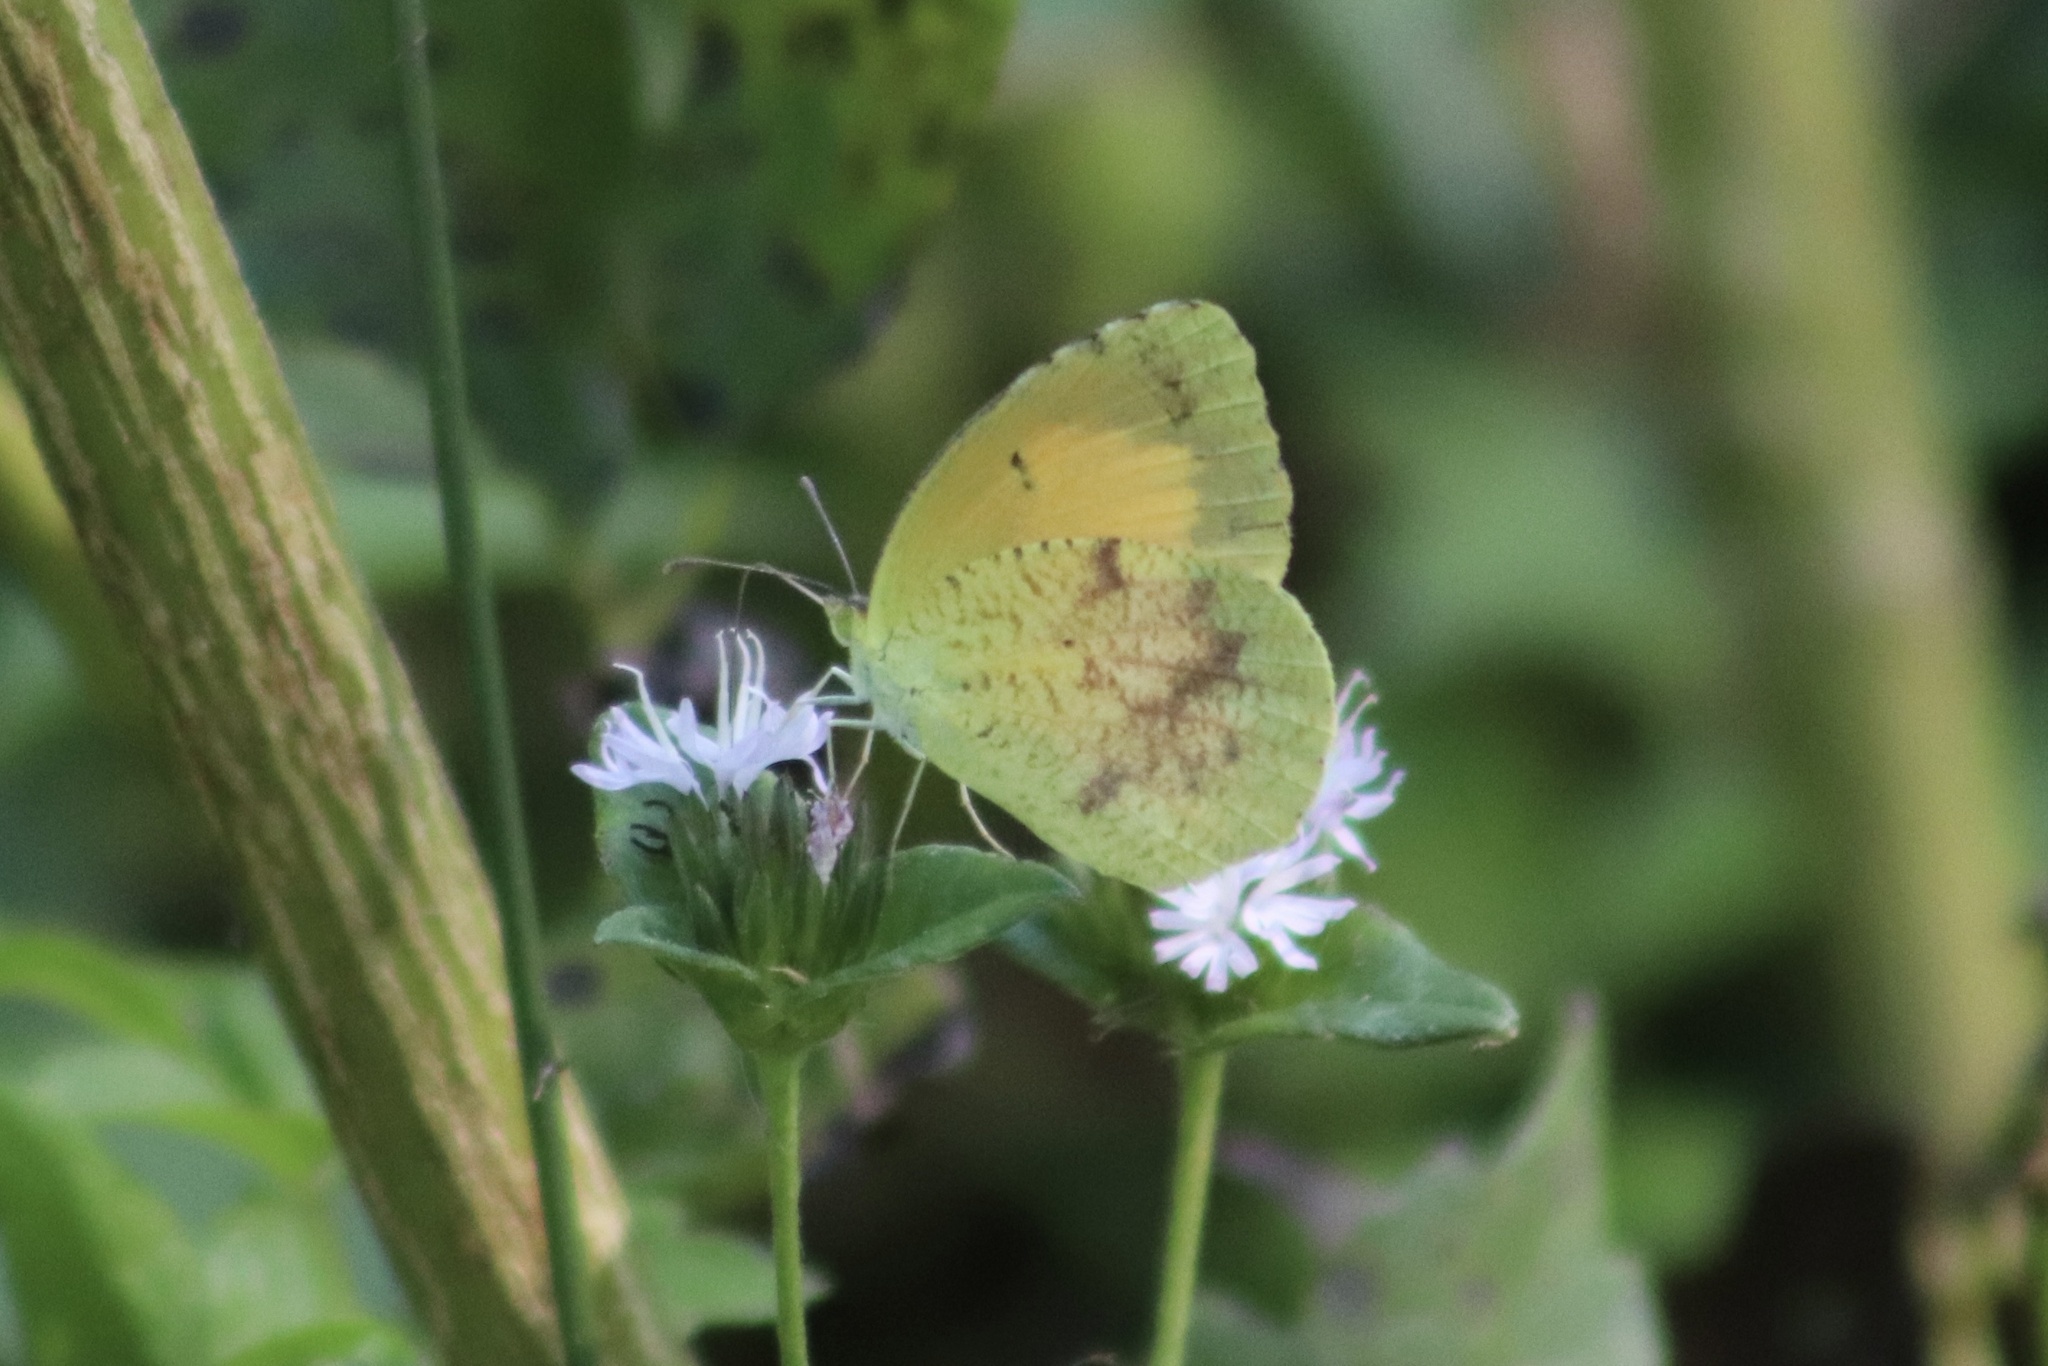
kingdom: Animalia
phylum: Arthropoda
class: Insecta
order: Lepidoptera
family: Pieridae
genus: Abaeis
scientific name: Abaeis nicippe
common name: Sleepy orange
